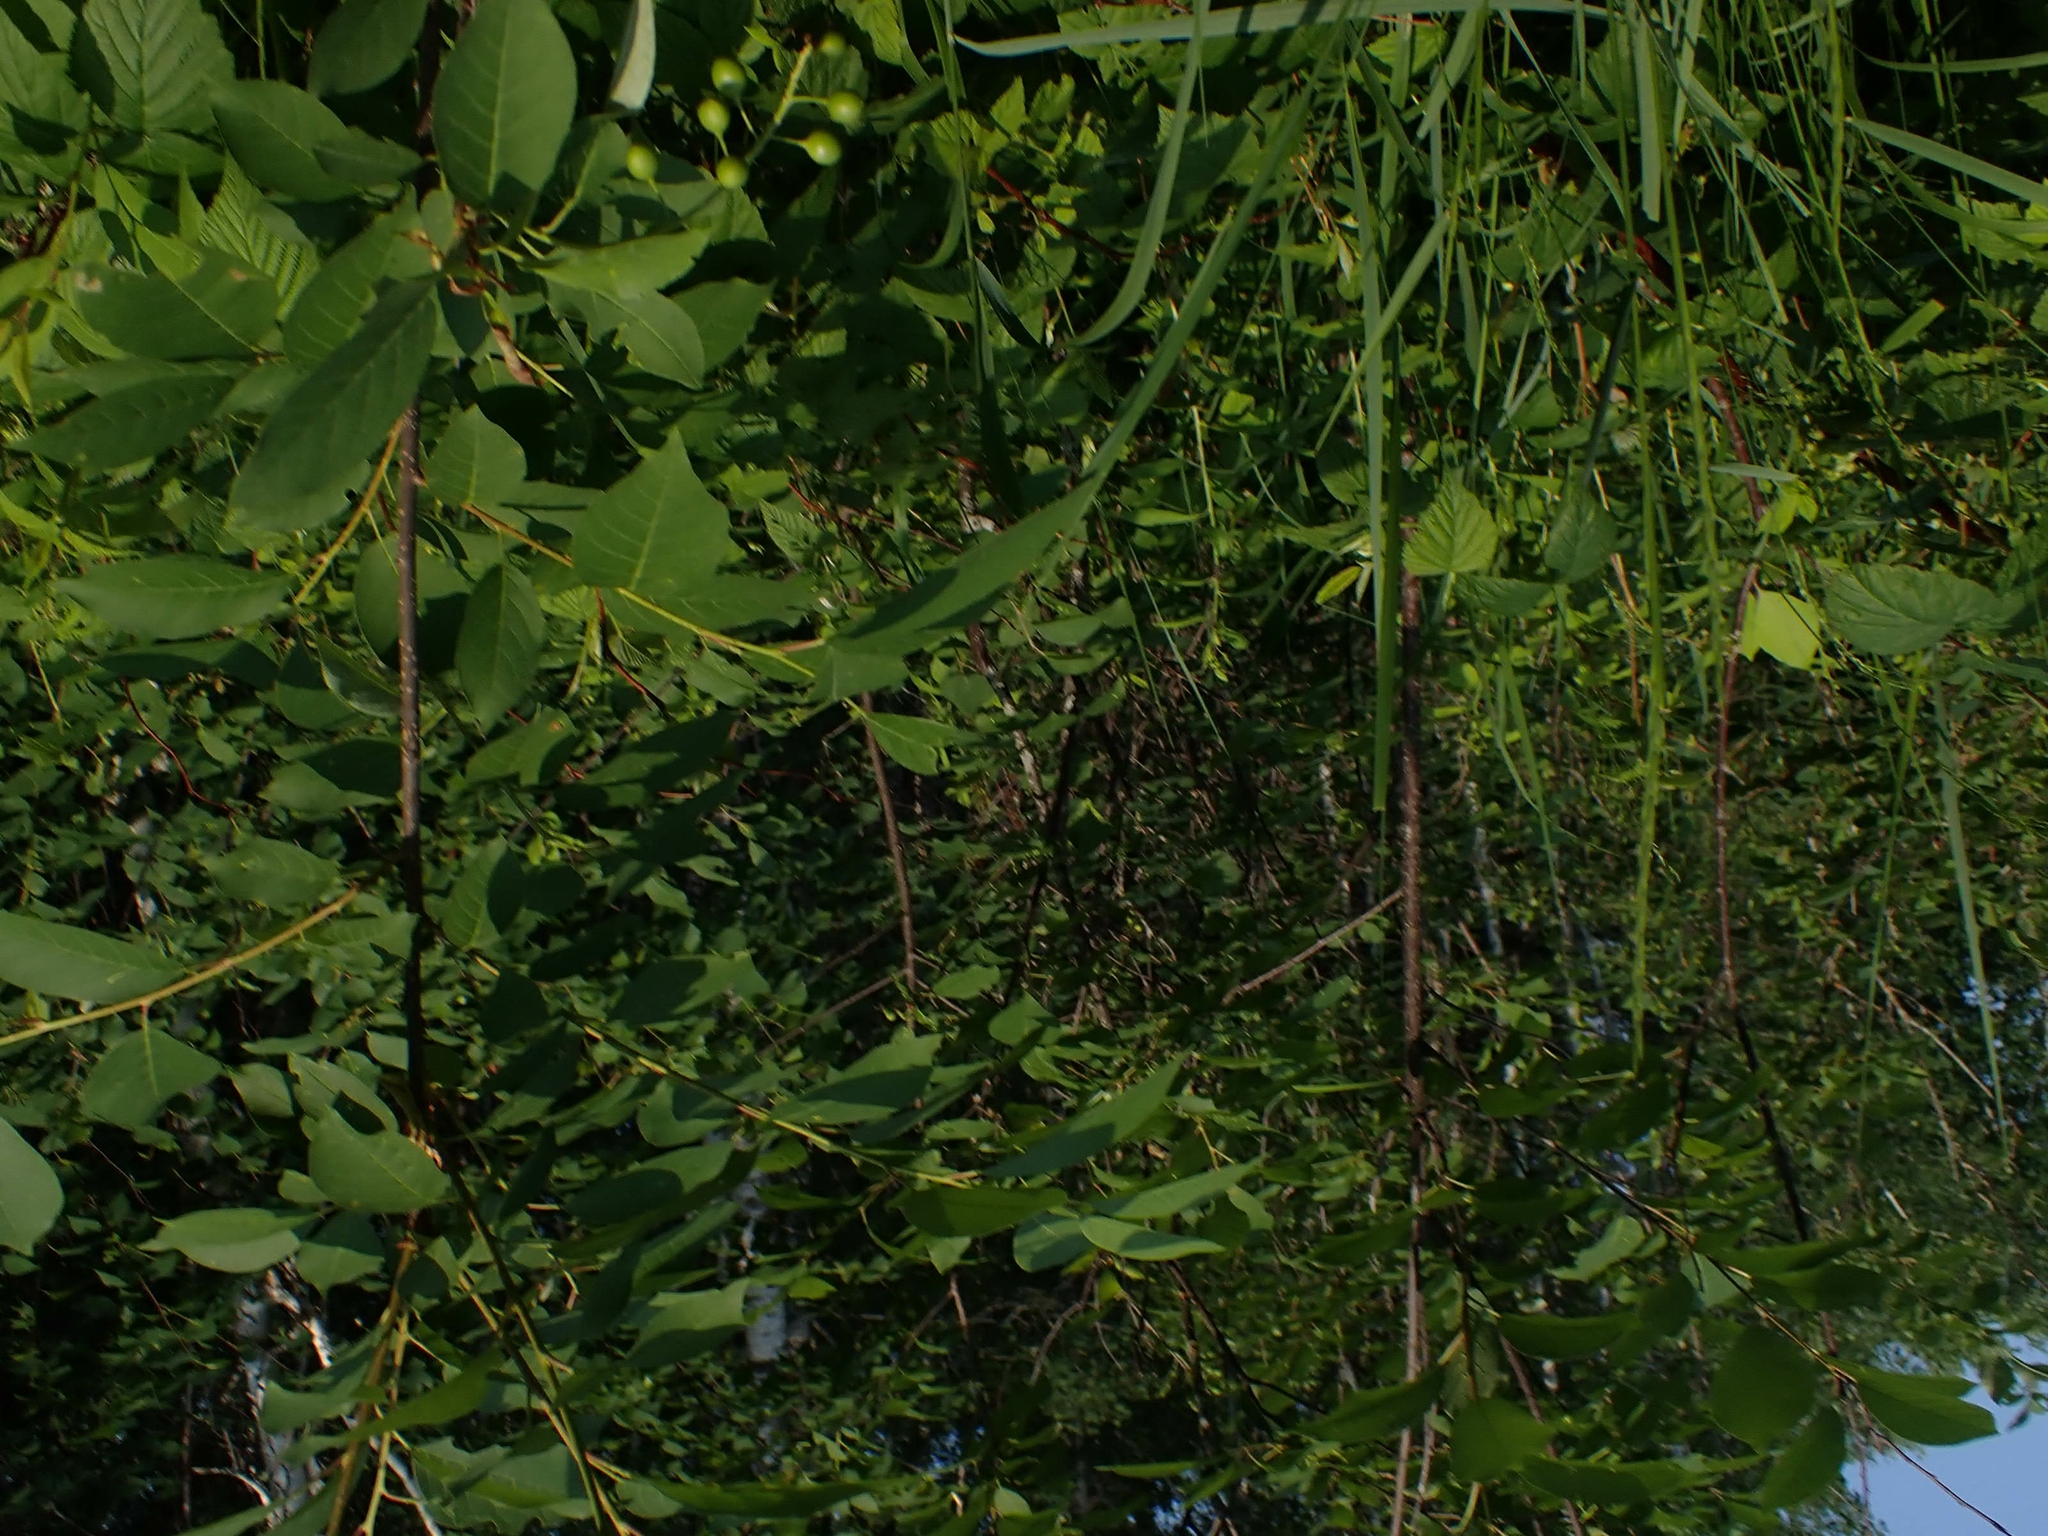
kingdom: Plantae
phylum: Tracheophyta
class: Magnoliopsida
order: Rosales
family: Rosaceae
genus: Prunus
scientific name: Prunus virginiana
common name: Chokecherry
